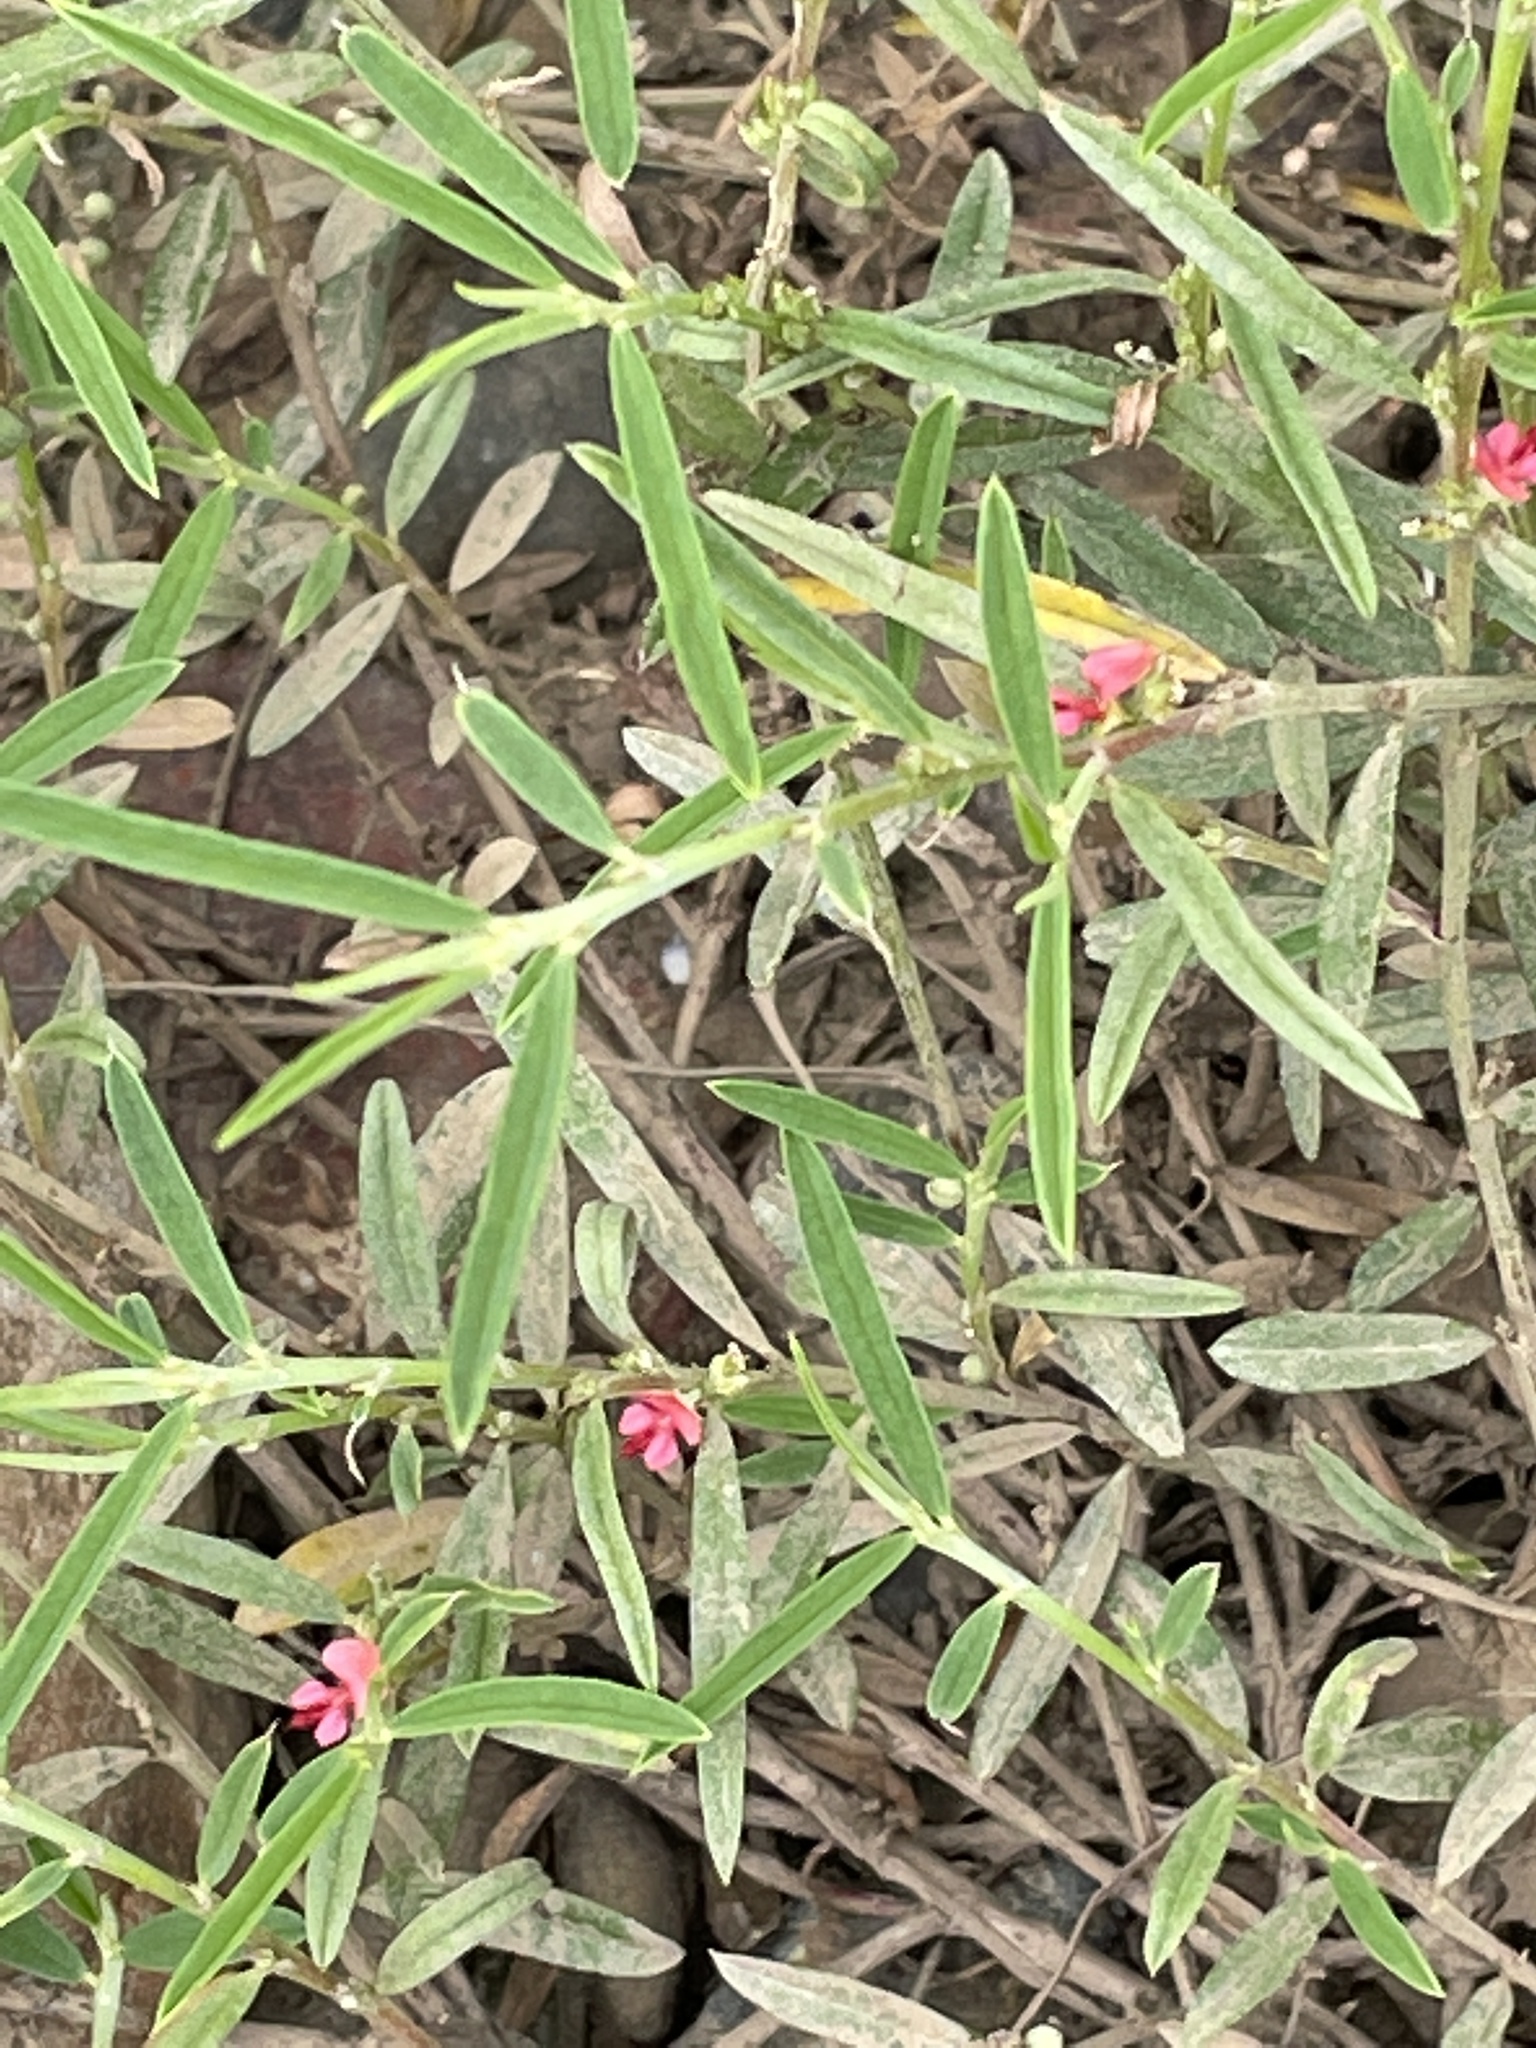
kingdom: Plantae
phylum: Tracheophyta
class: Magnoliopsida
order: Fabales
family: Fabaceae
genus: Indigofera
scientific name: Indigofera linifolia
